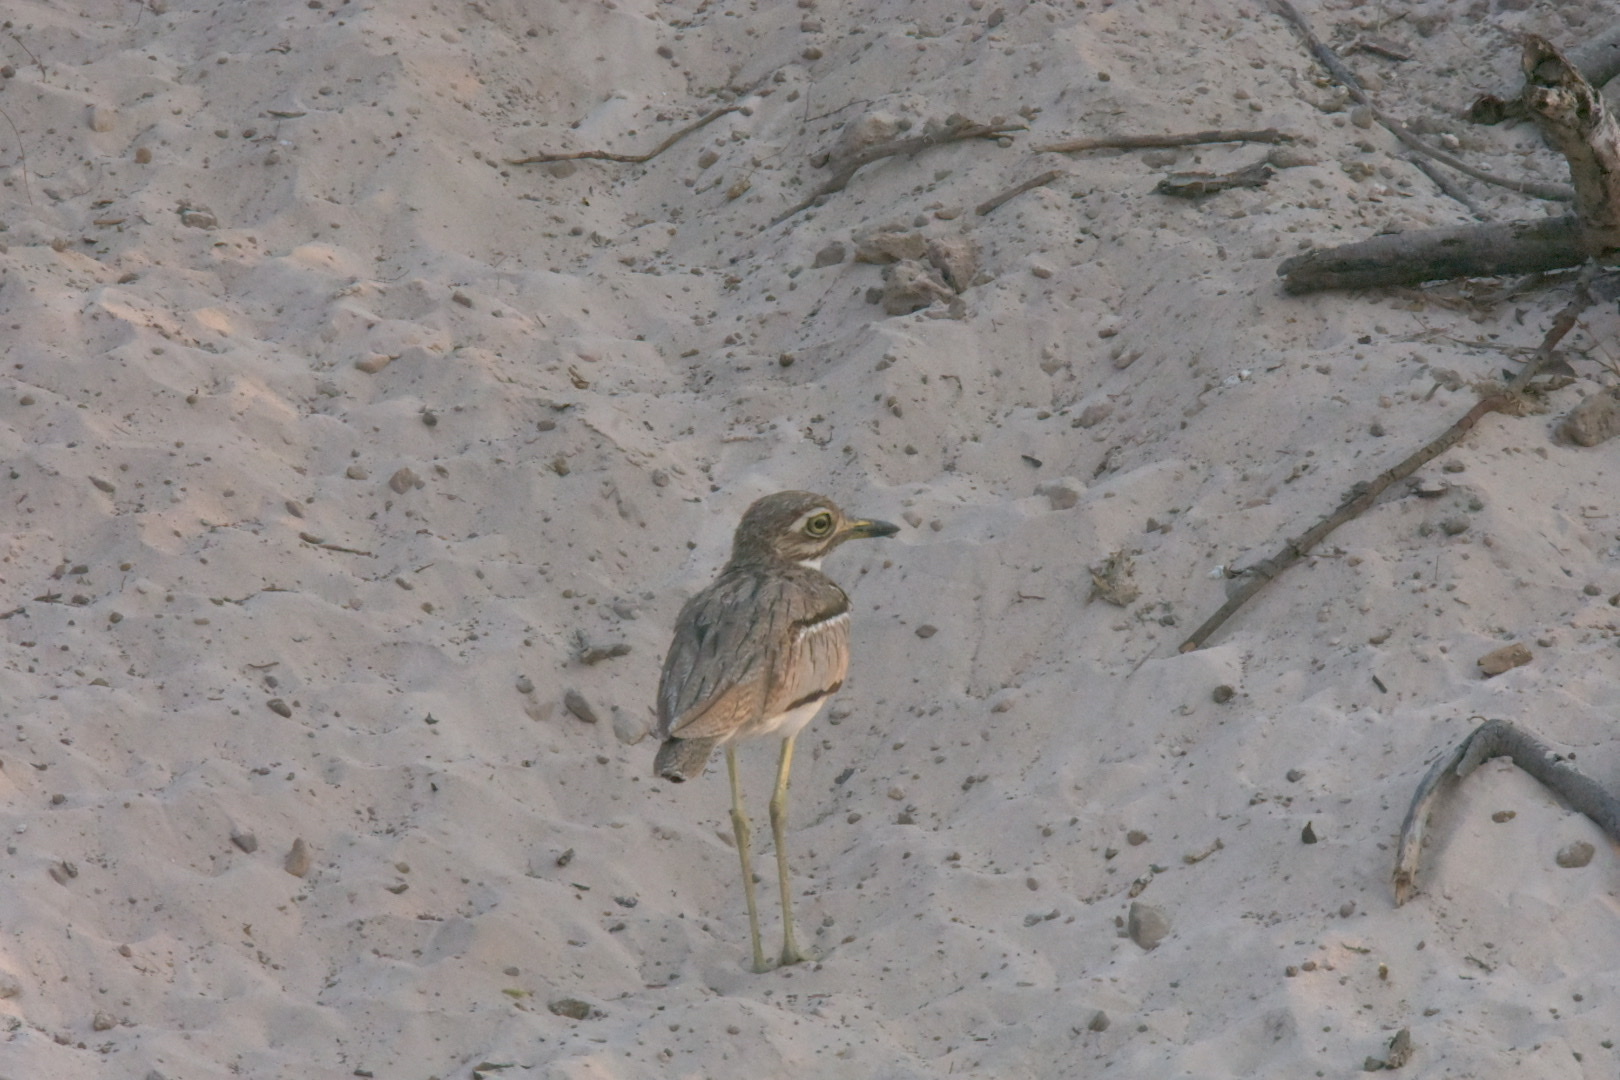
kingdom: Animalia
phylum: Chordata
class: Aves
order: Charadriiformes
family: Burhinidae
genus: Burhinus
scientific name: Burhinus vermiculatus
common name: Water thick-knee
